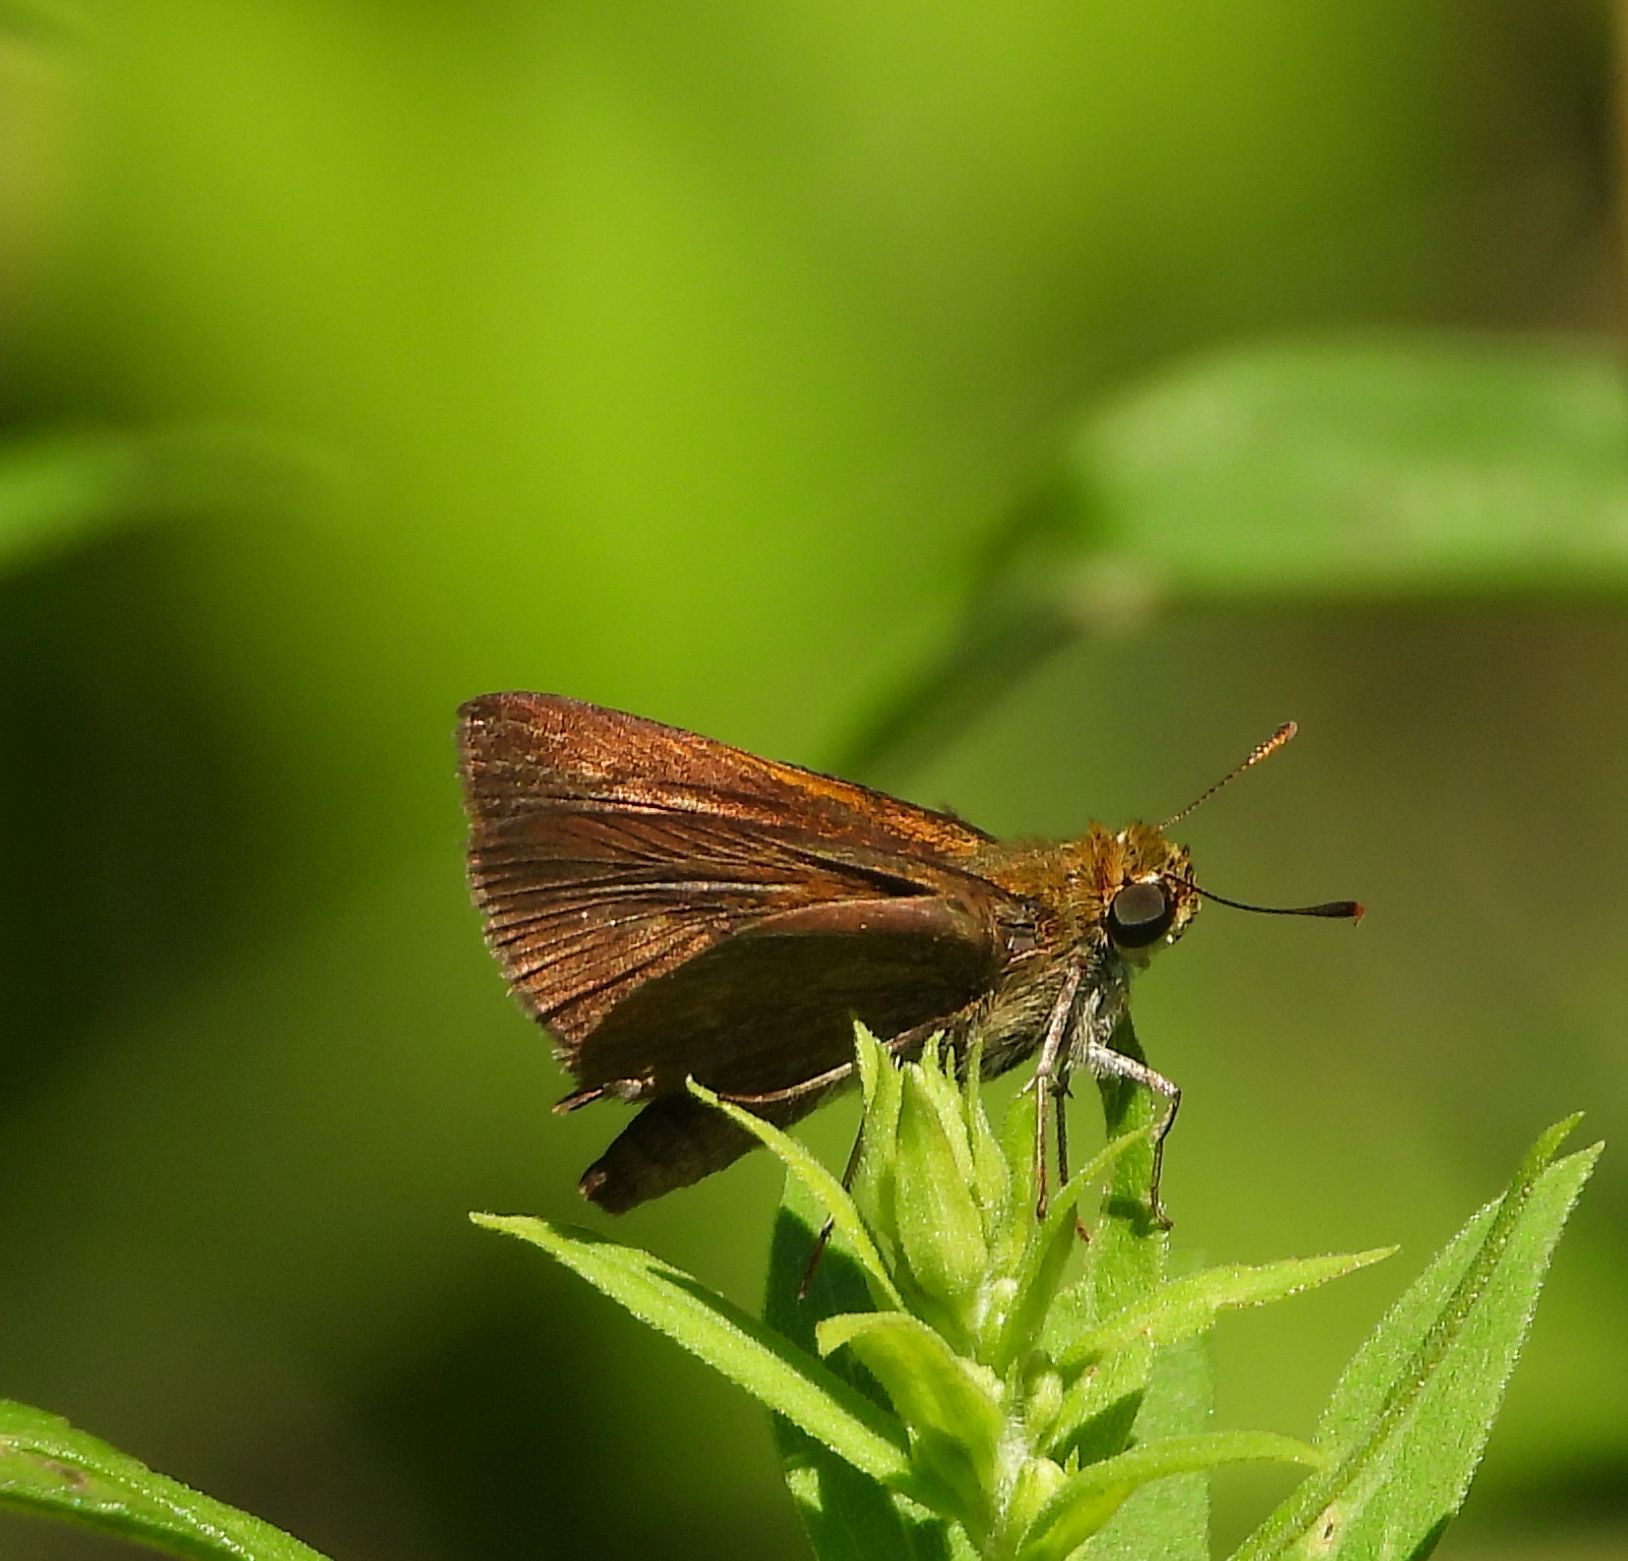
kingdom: Animalia
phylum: Arthropoda
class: Insecta
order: Lepidoptera
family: Hesperiidae
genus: Euphyes
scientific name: Euphyes vestris
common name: Dun skipper
